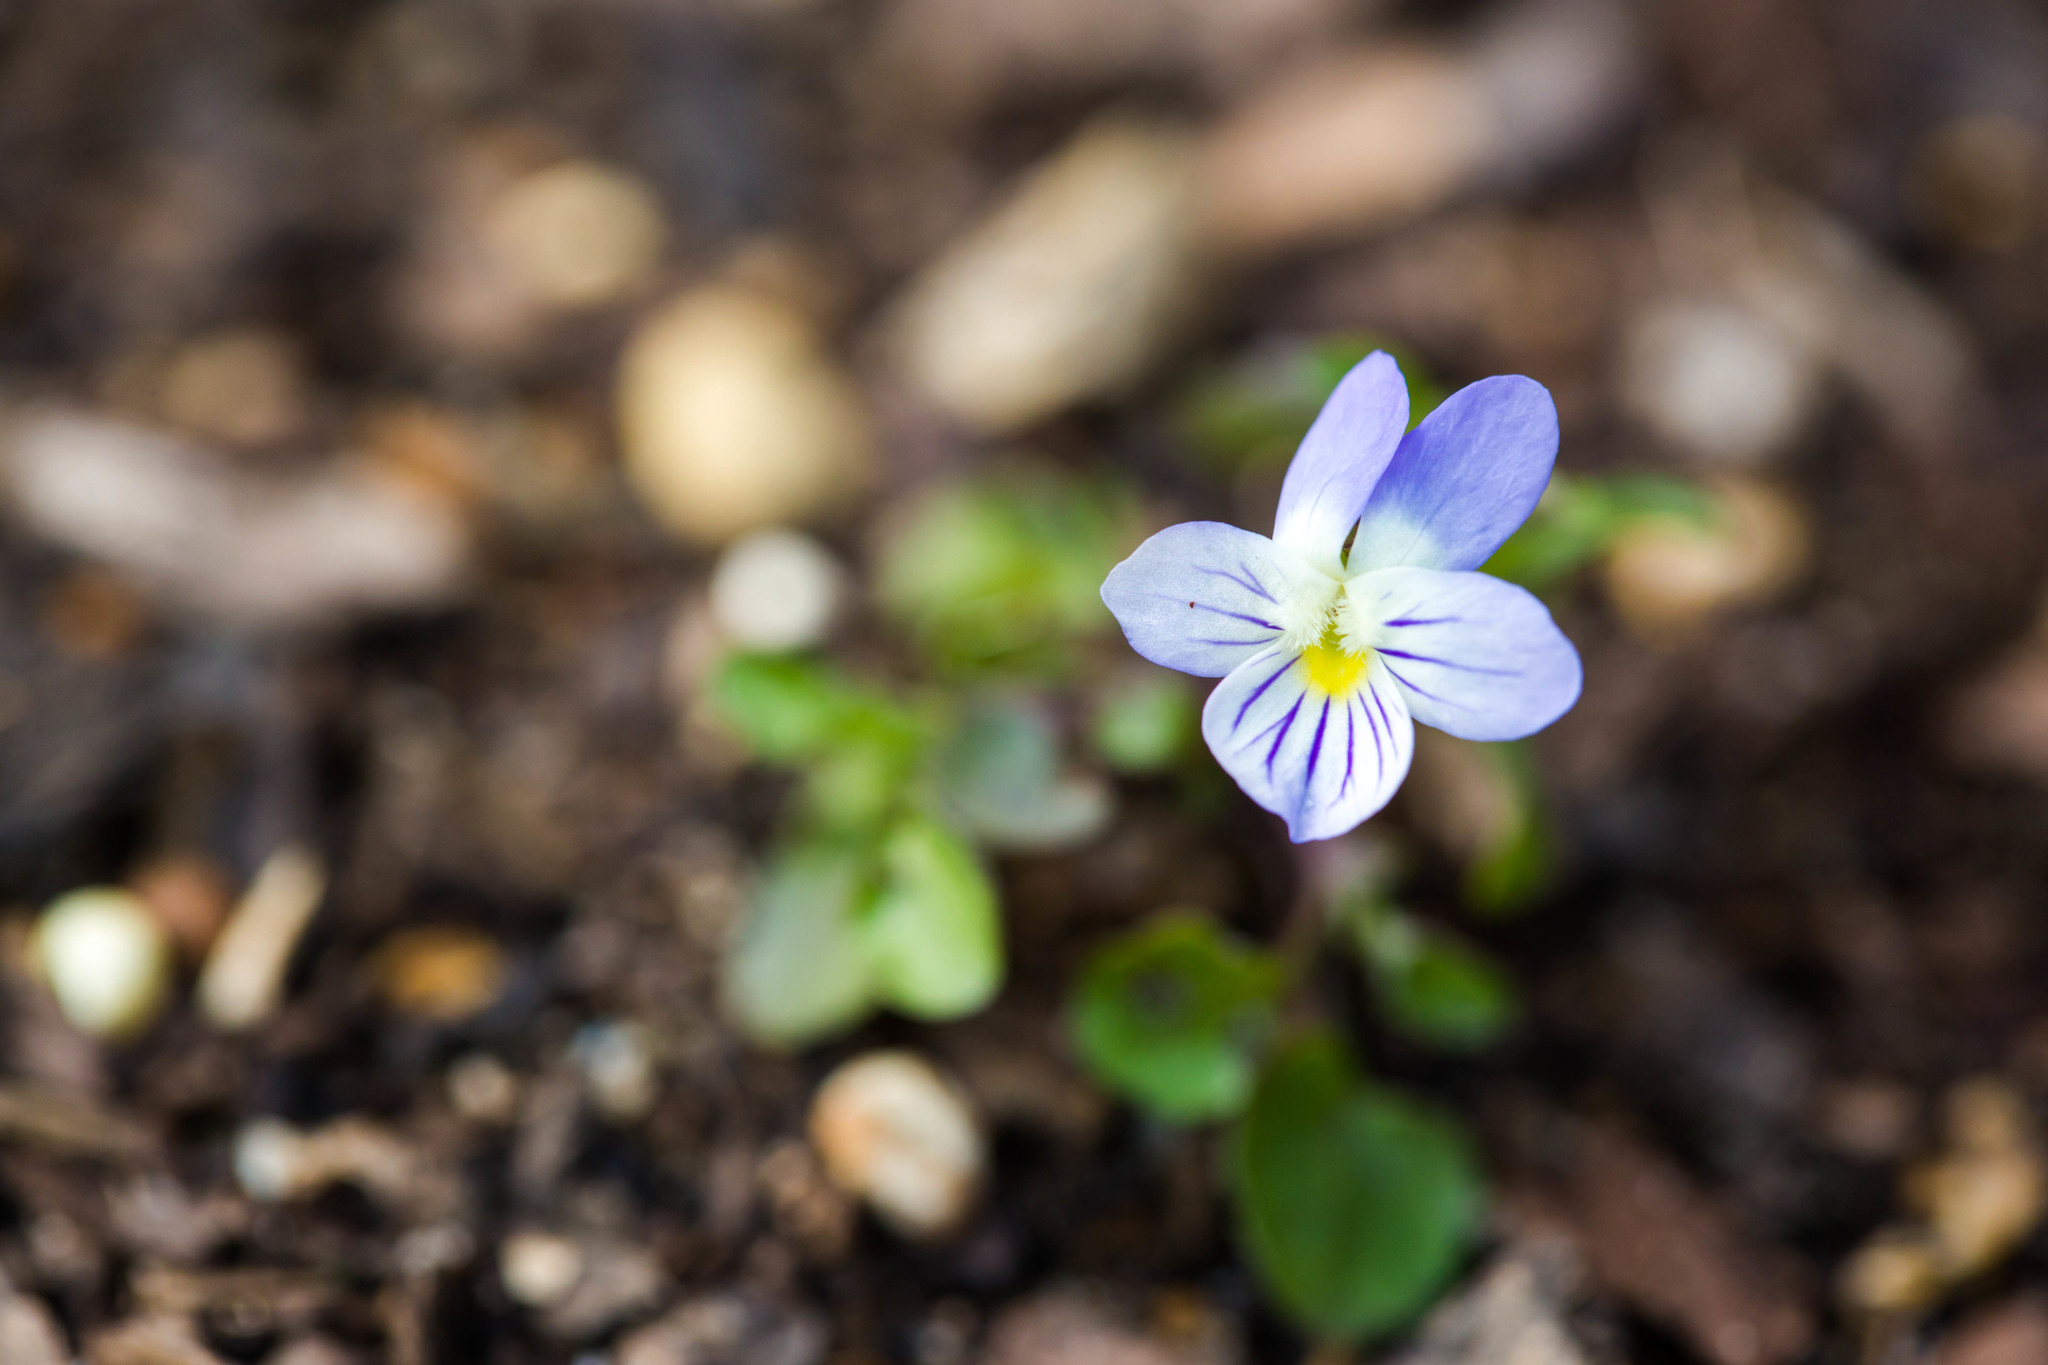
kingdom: Plantae
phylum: Tracheophyta
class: Magnoliopsida
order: Malpighiales
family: Violaceae
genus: Viola
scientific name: Viola rafinesquei
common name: American field pansy
